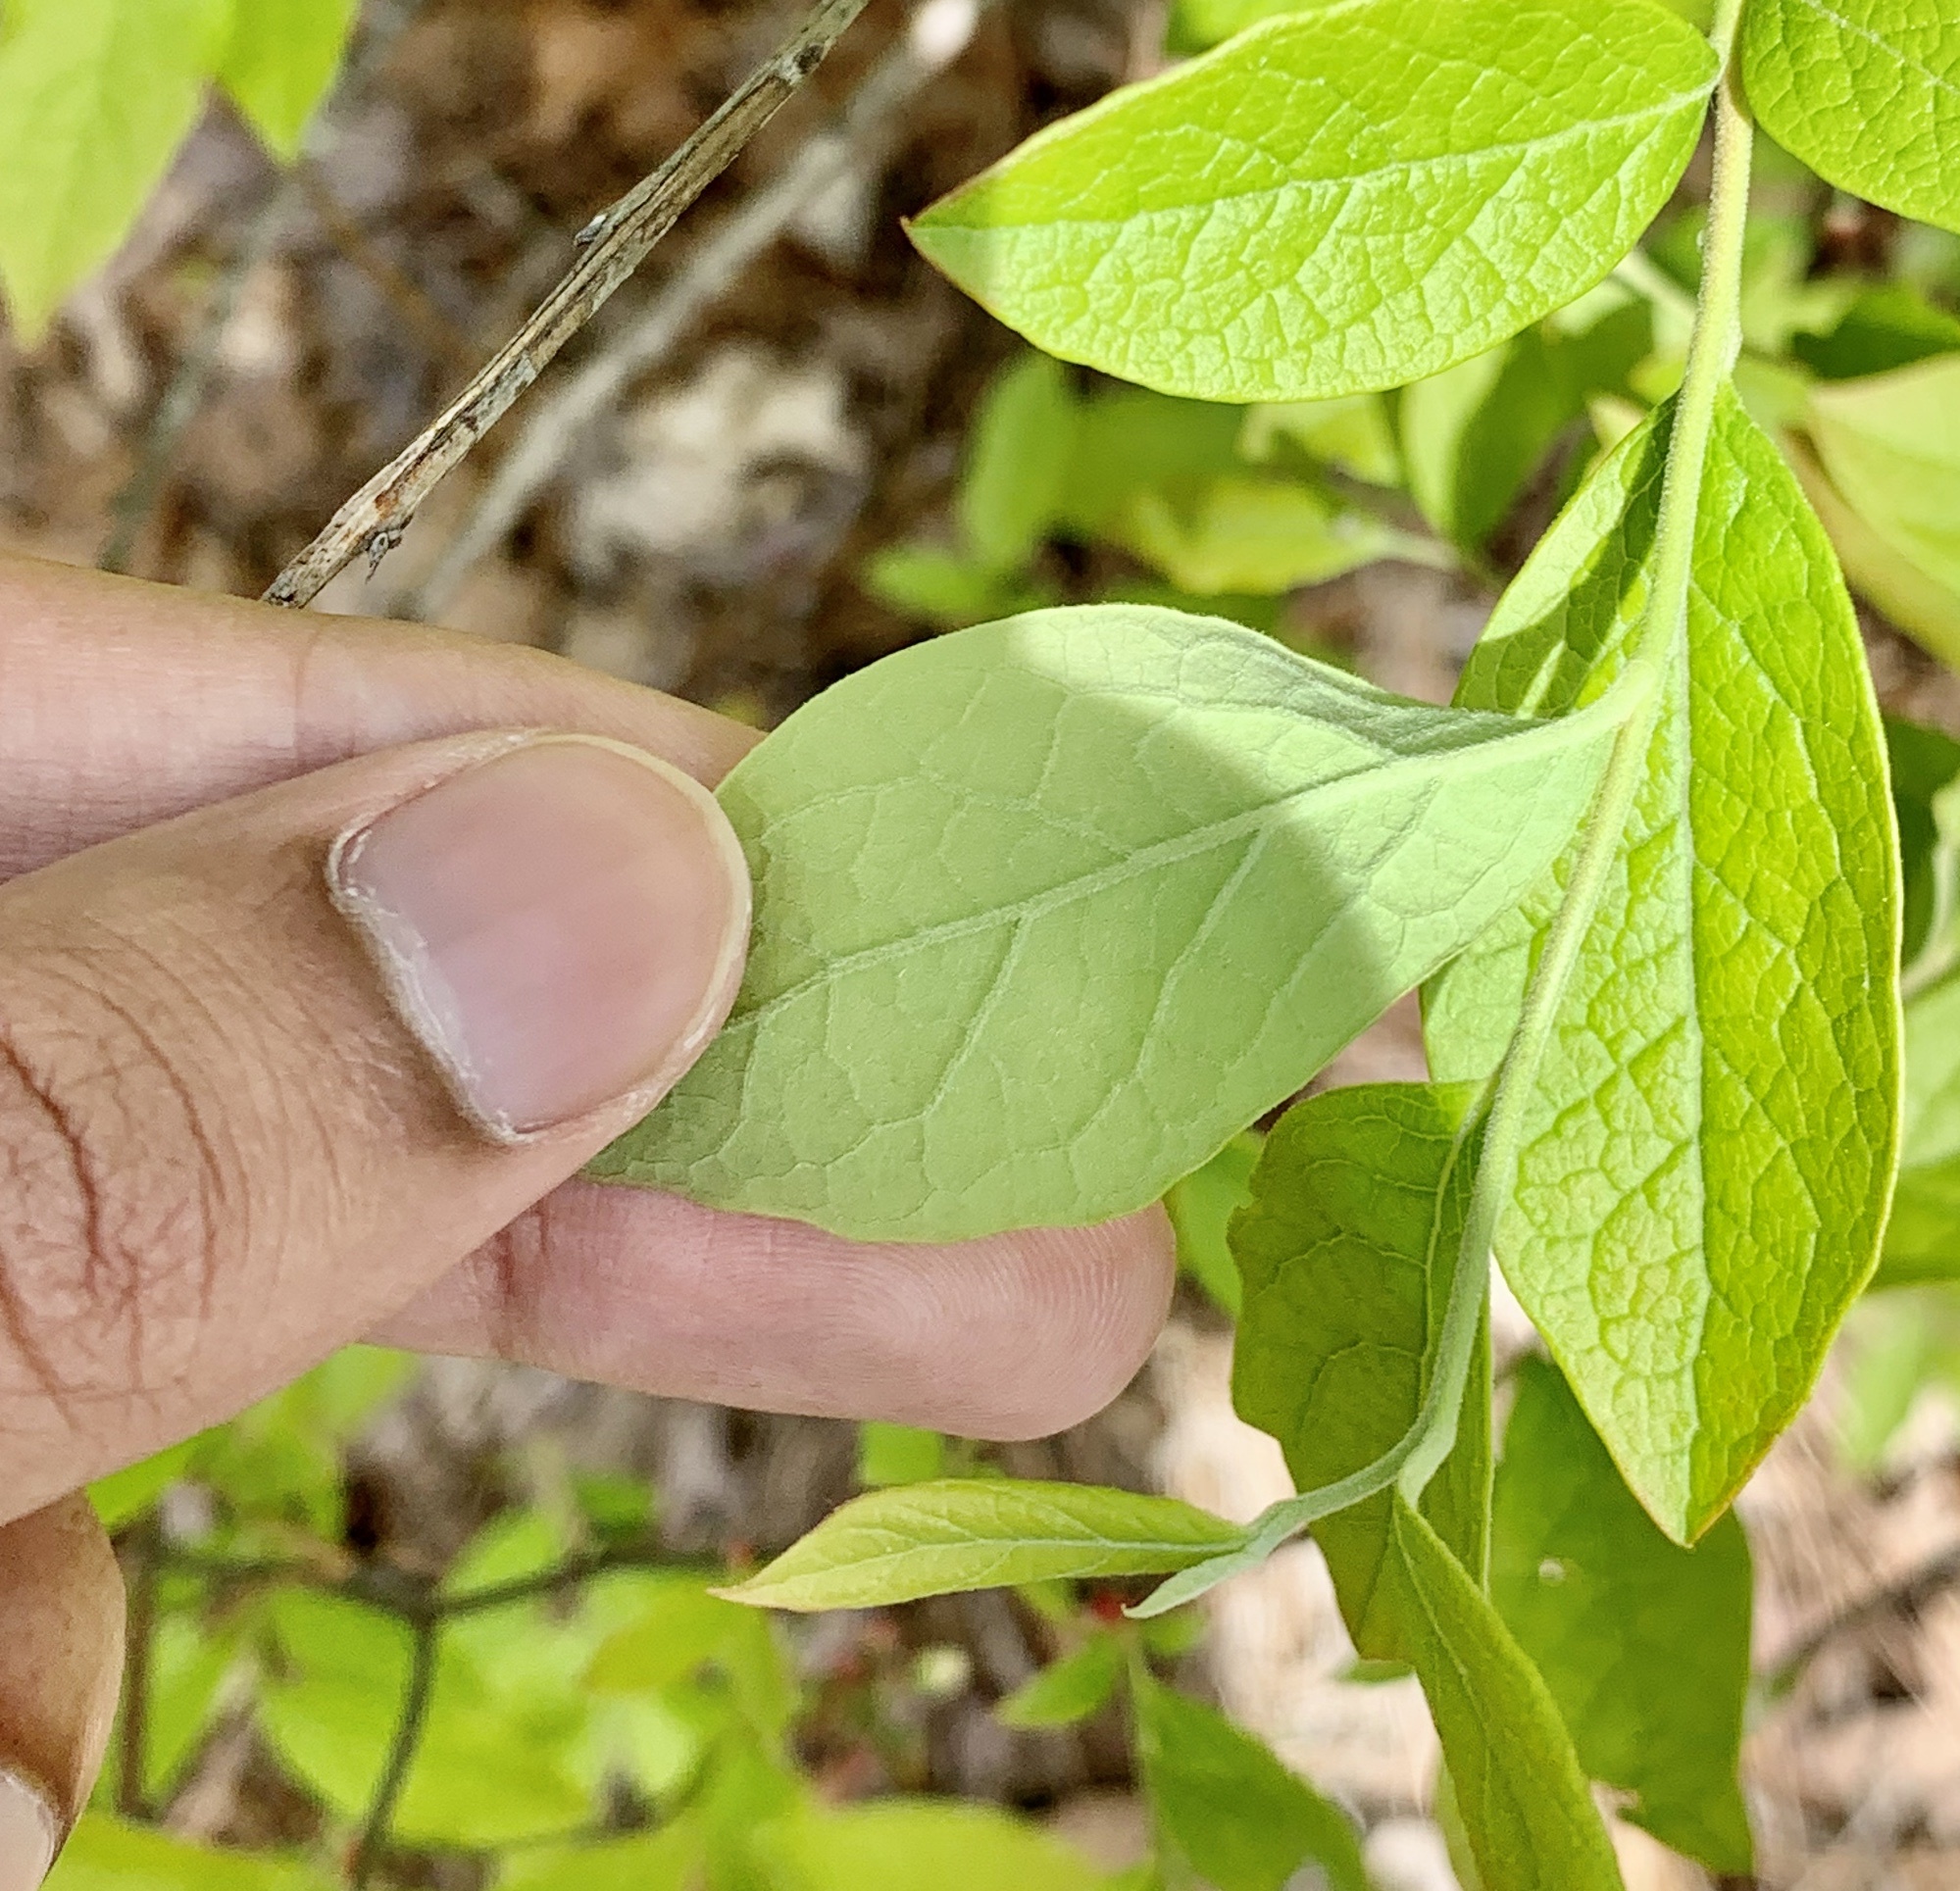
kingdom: Plantae
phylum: Tracheophyta
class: Magnoliopsida
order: Ericales
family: Ericaceae
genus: Vaccinium
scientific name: Vaccinium corymbosum
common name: Blueberry
